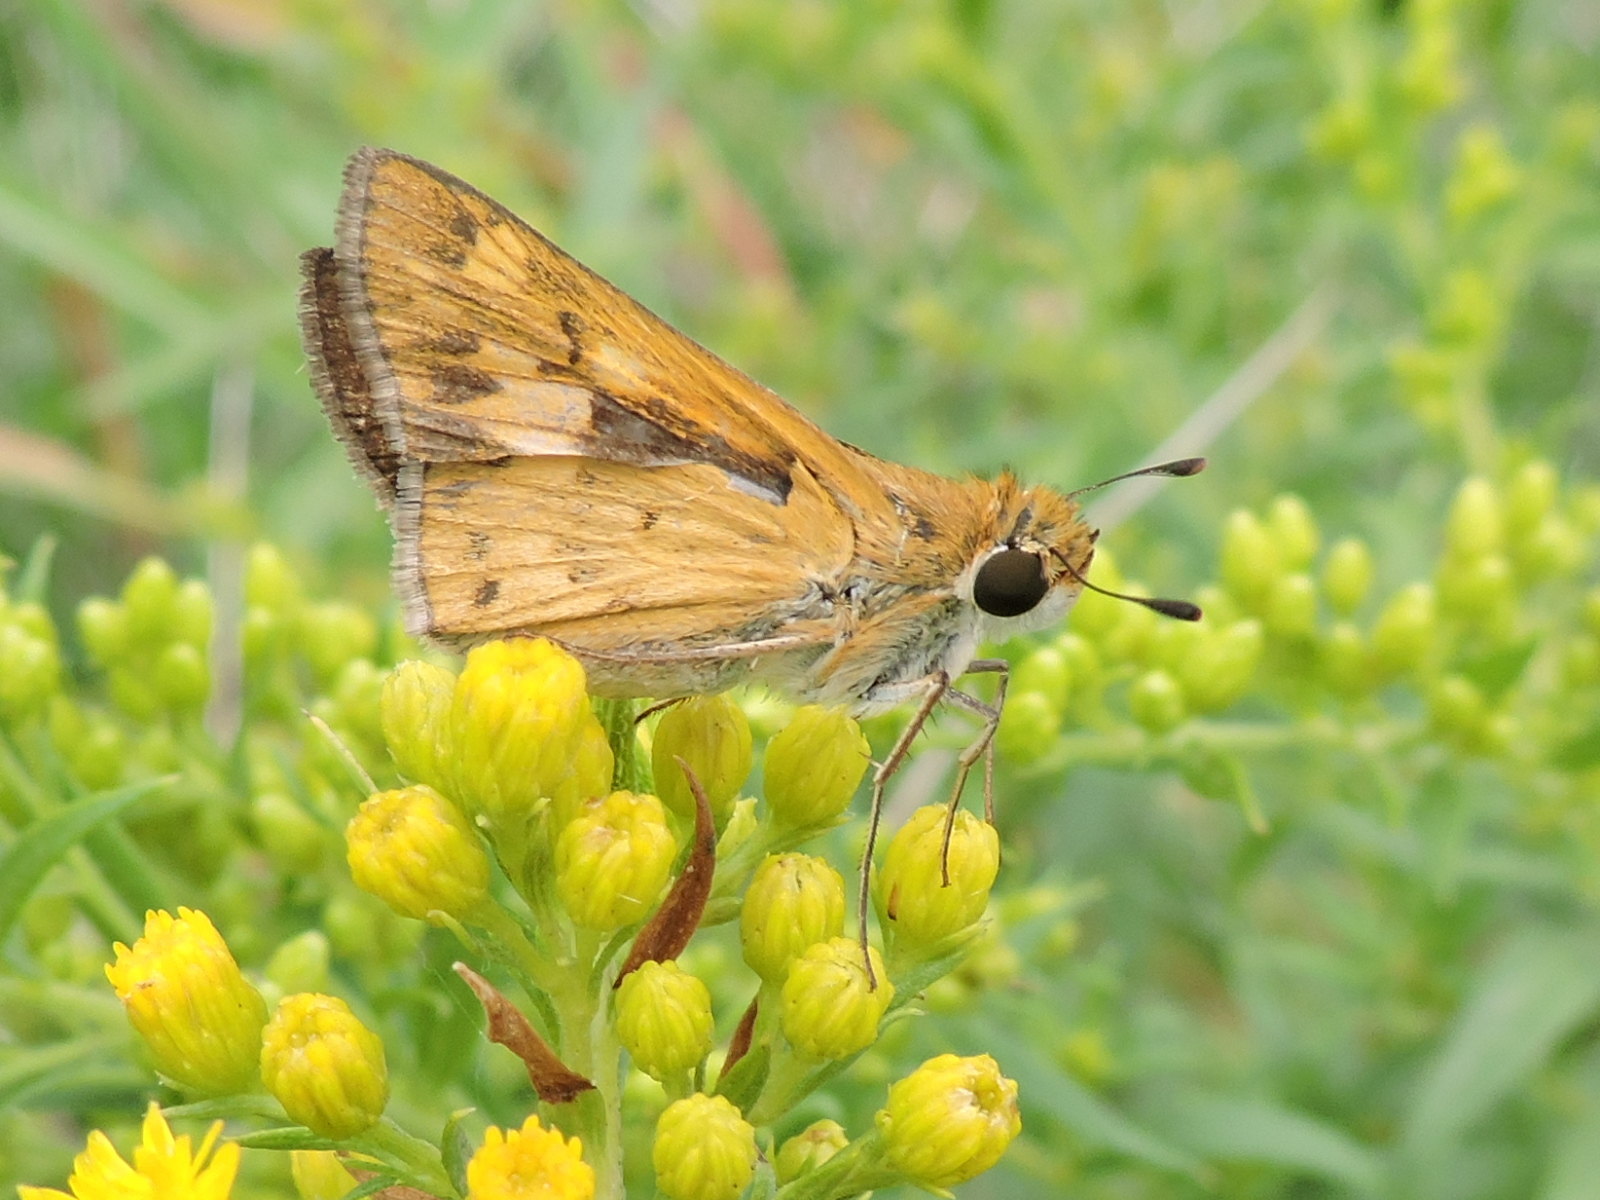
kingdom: Animalia
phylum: Arthropoda
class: Insecta
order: Lepidoptera
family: Hesperiidae
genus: Hylephila
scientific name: Hylephila phyleus
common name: Fiery skipper
